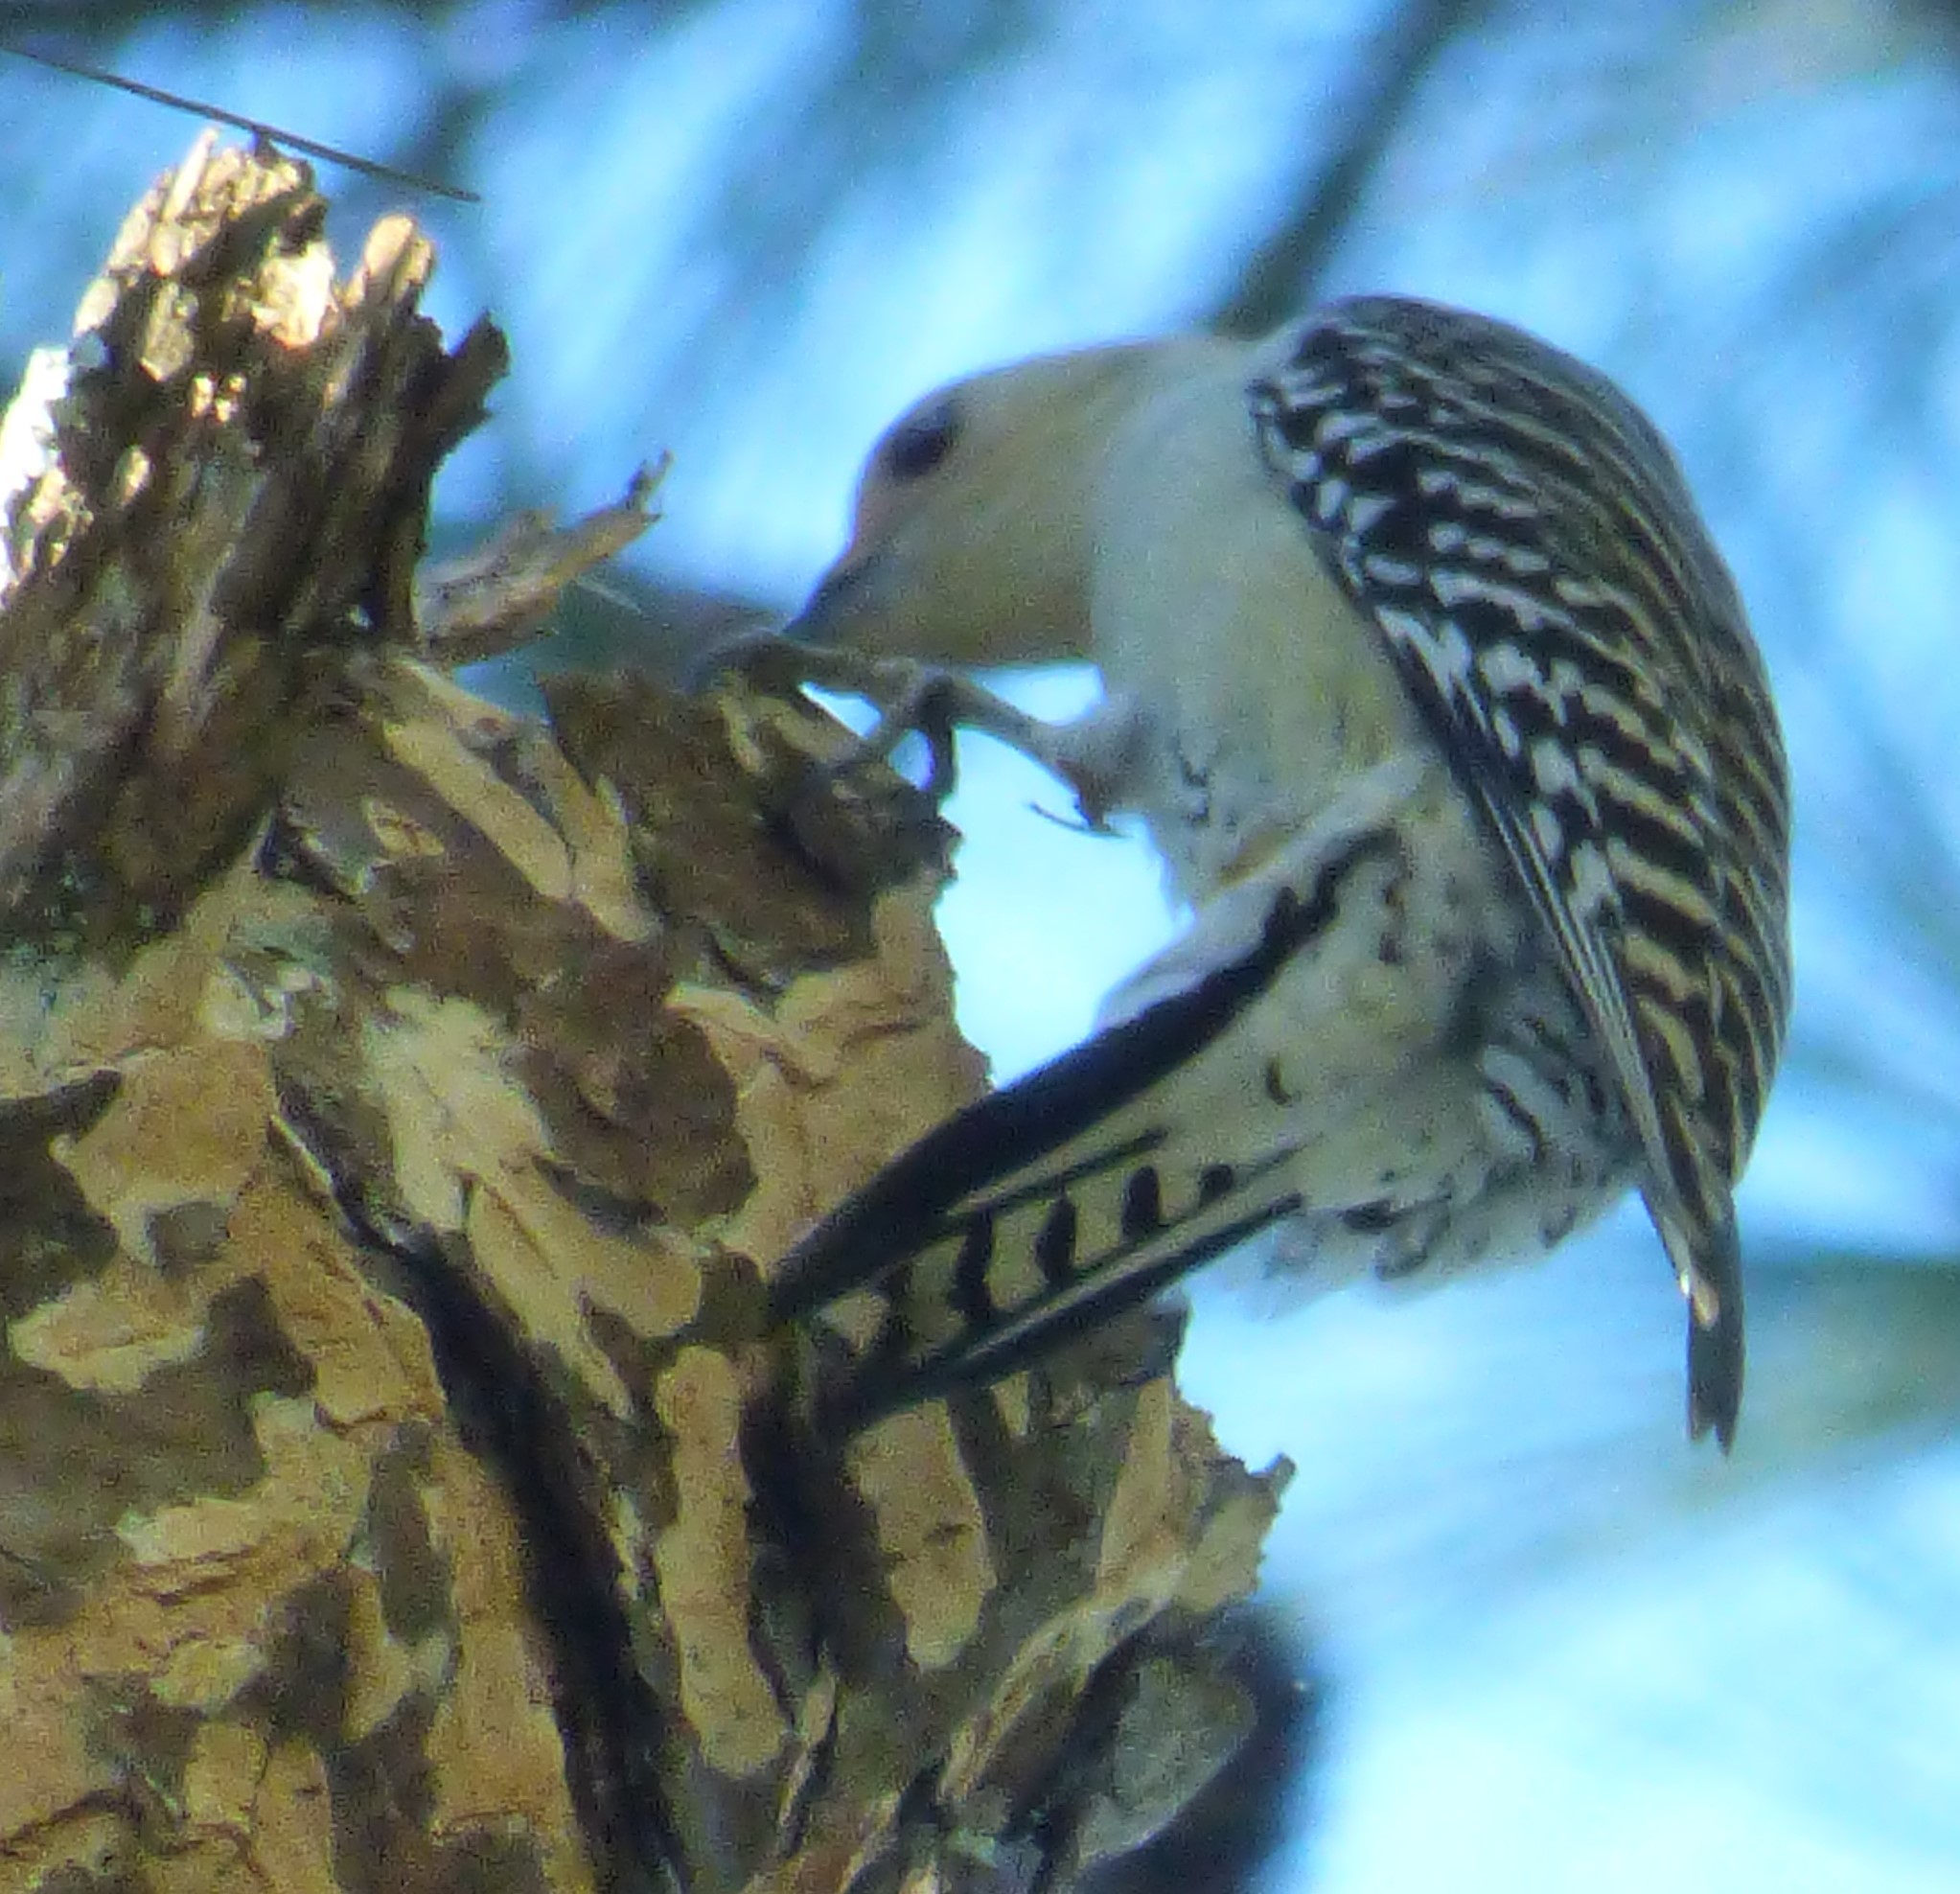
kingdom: Animalia
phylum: Chordata
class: Aves
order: Piciformes
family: Picidae
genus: Melanerpes
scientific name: Melanerpes carolinus
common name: Red-bellied woodpecker
